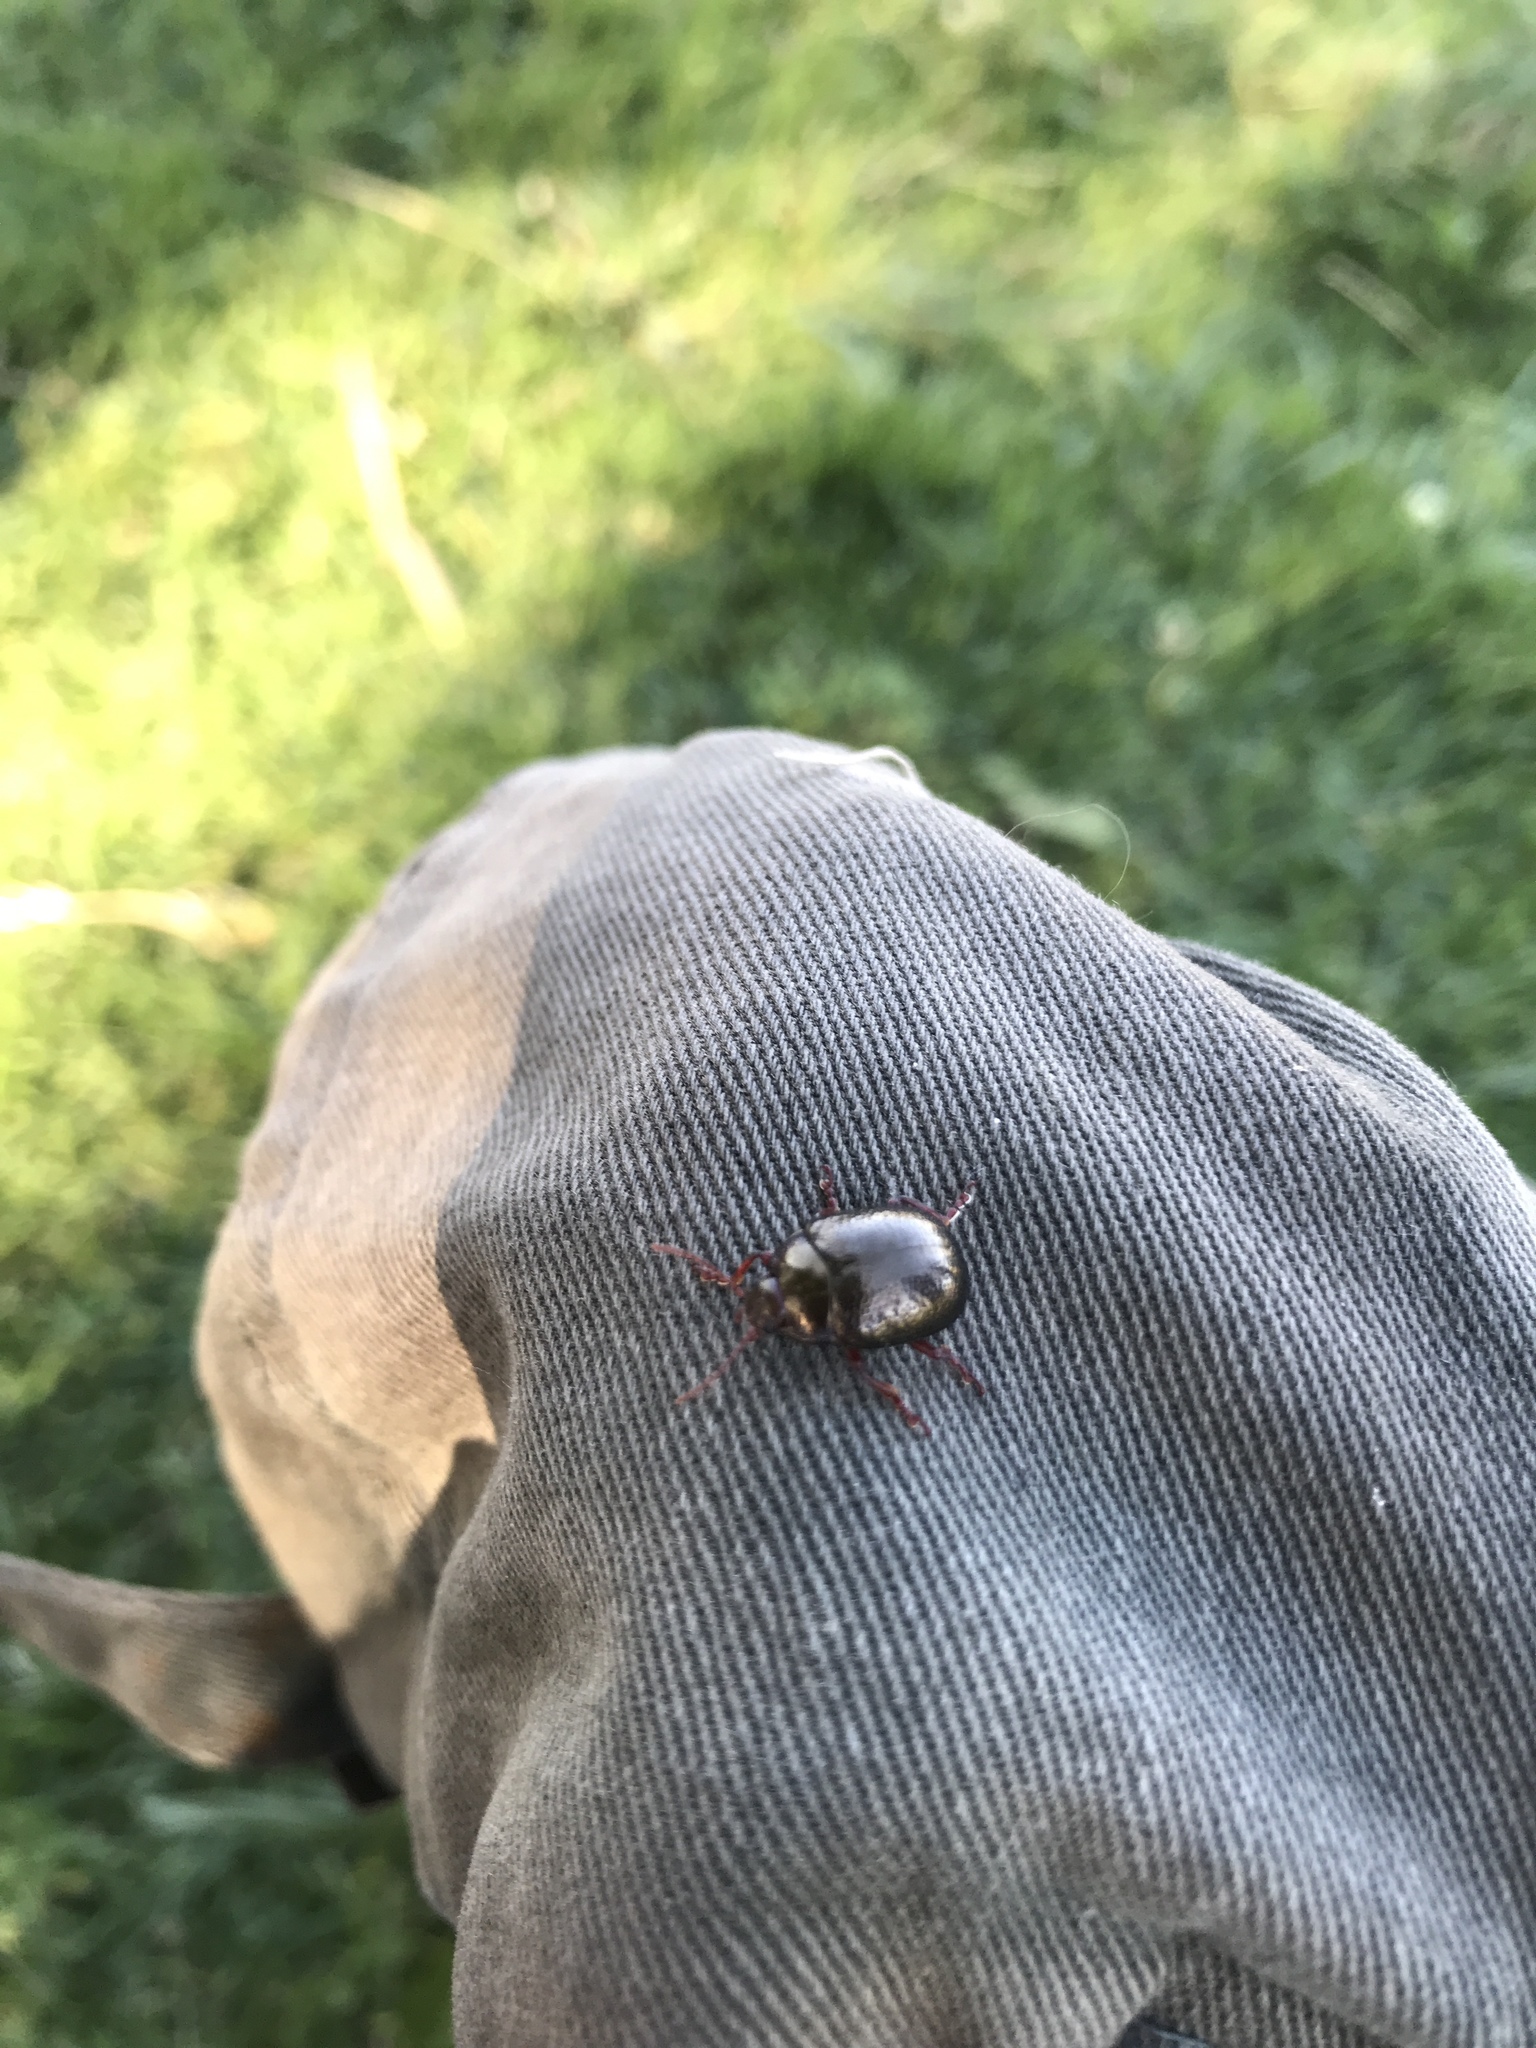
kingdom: Animalia
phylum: Arthropoda
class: Insecta
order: Coleoptera
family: Chrysomelidae
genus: Chrysolina
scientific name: Chrysolina bankii
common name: Leaf beetle
